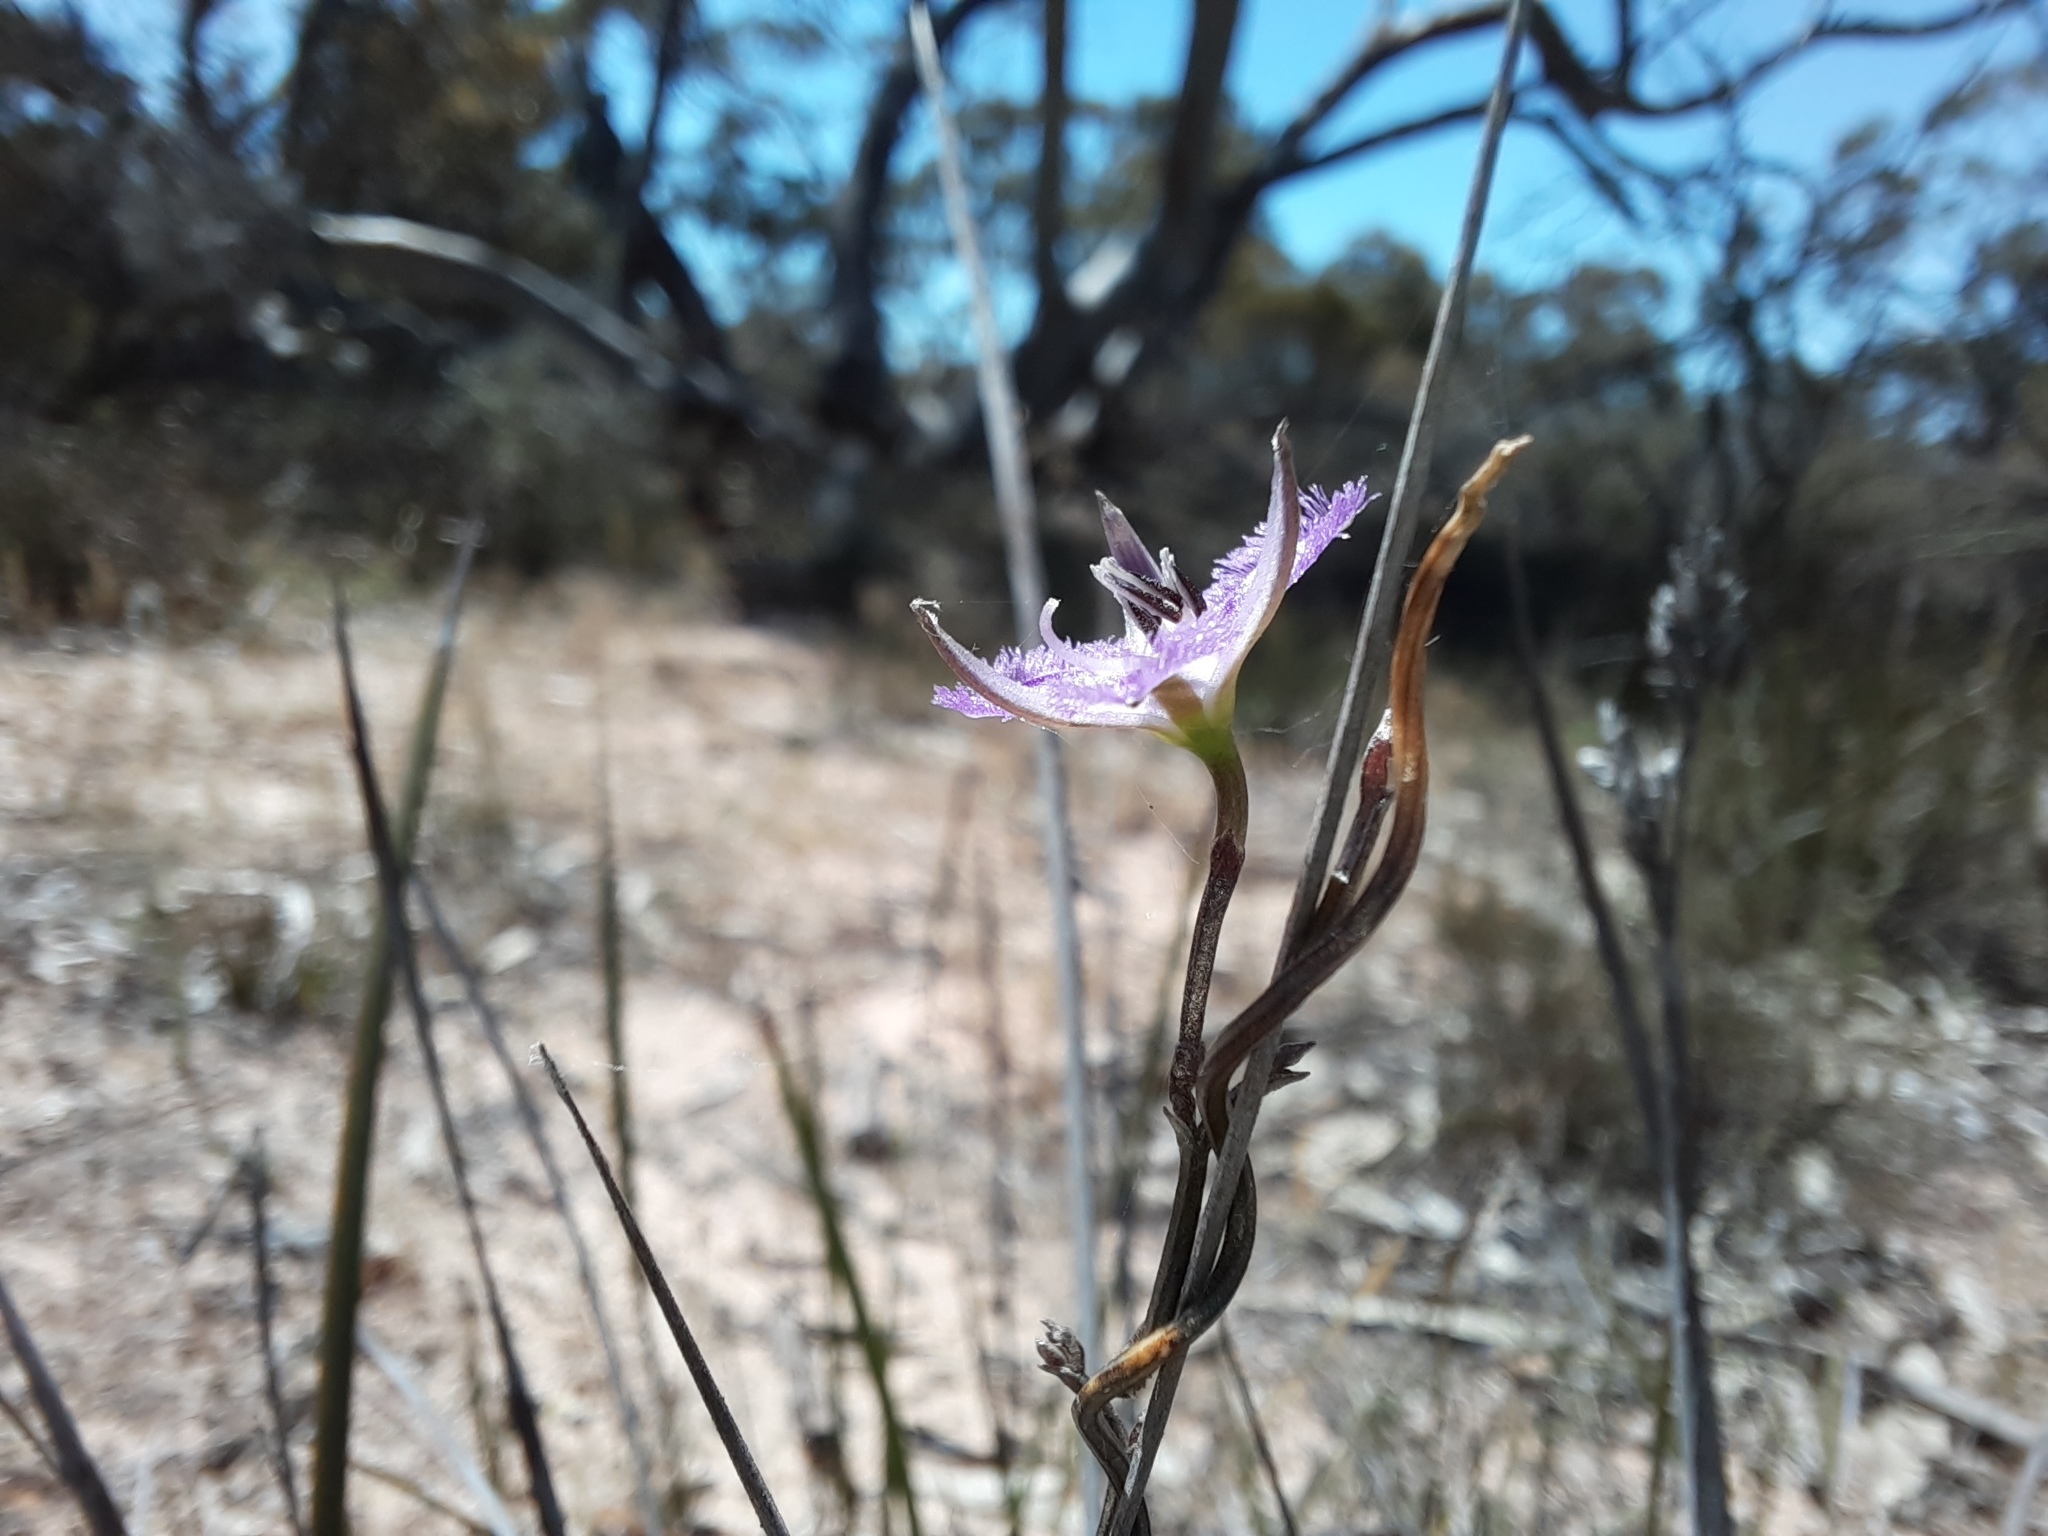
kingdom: Plantae
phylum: Tracheophyta
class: Liliopsida
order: Asparagales
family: Asparagaceae
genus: Thysanotus
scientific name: Thysanotus patersonii
